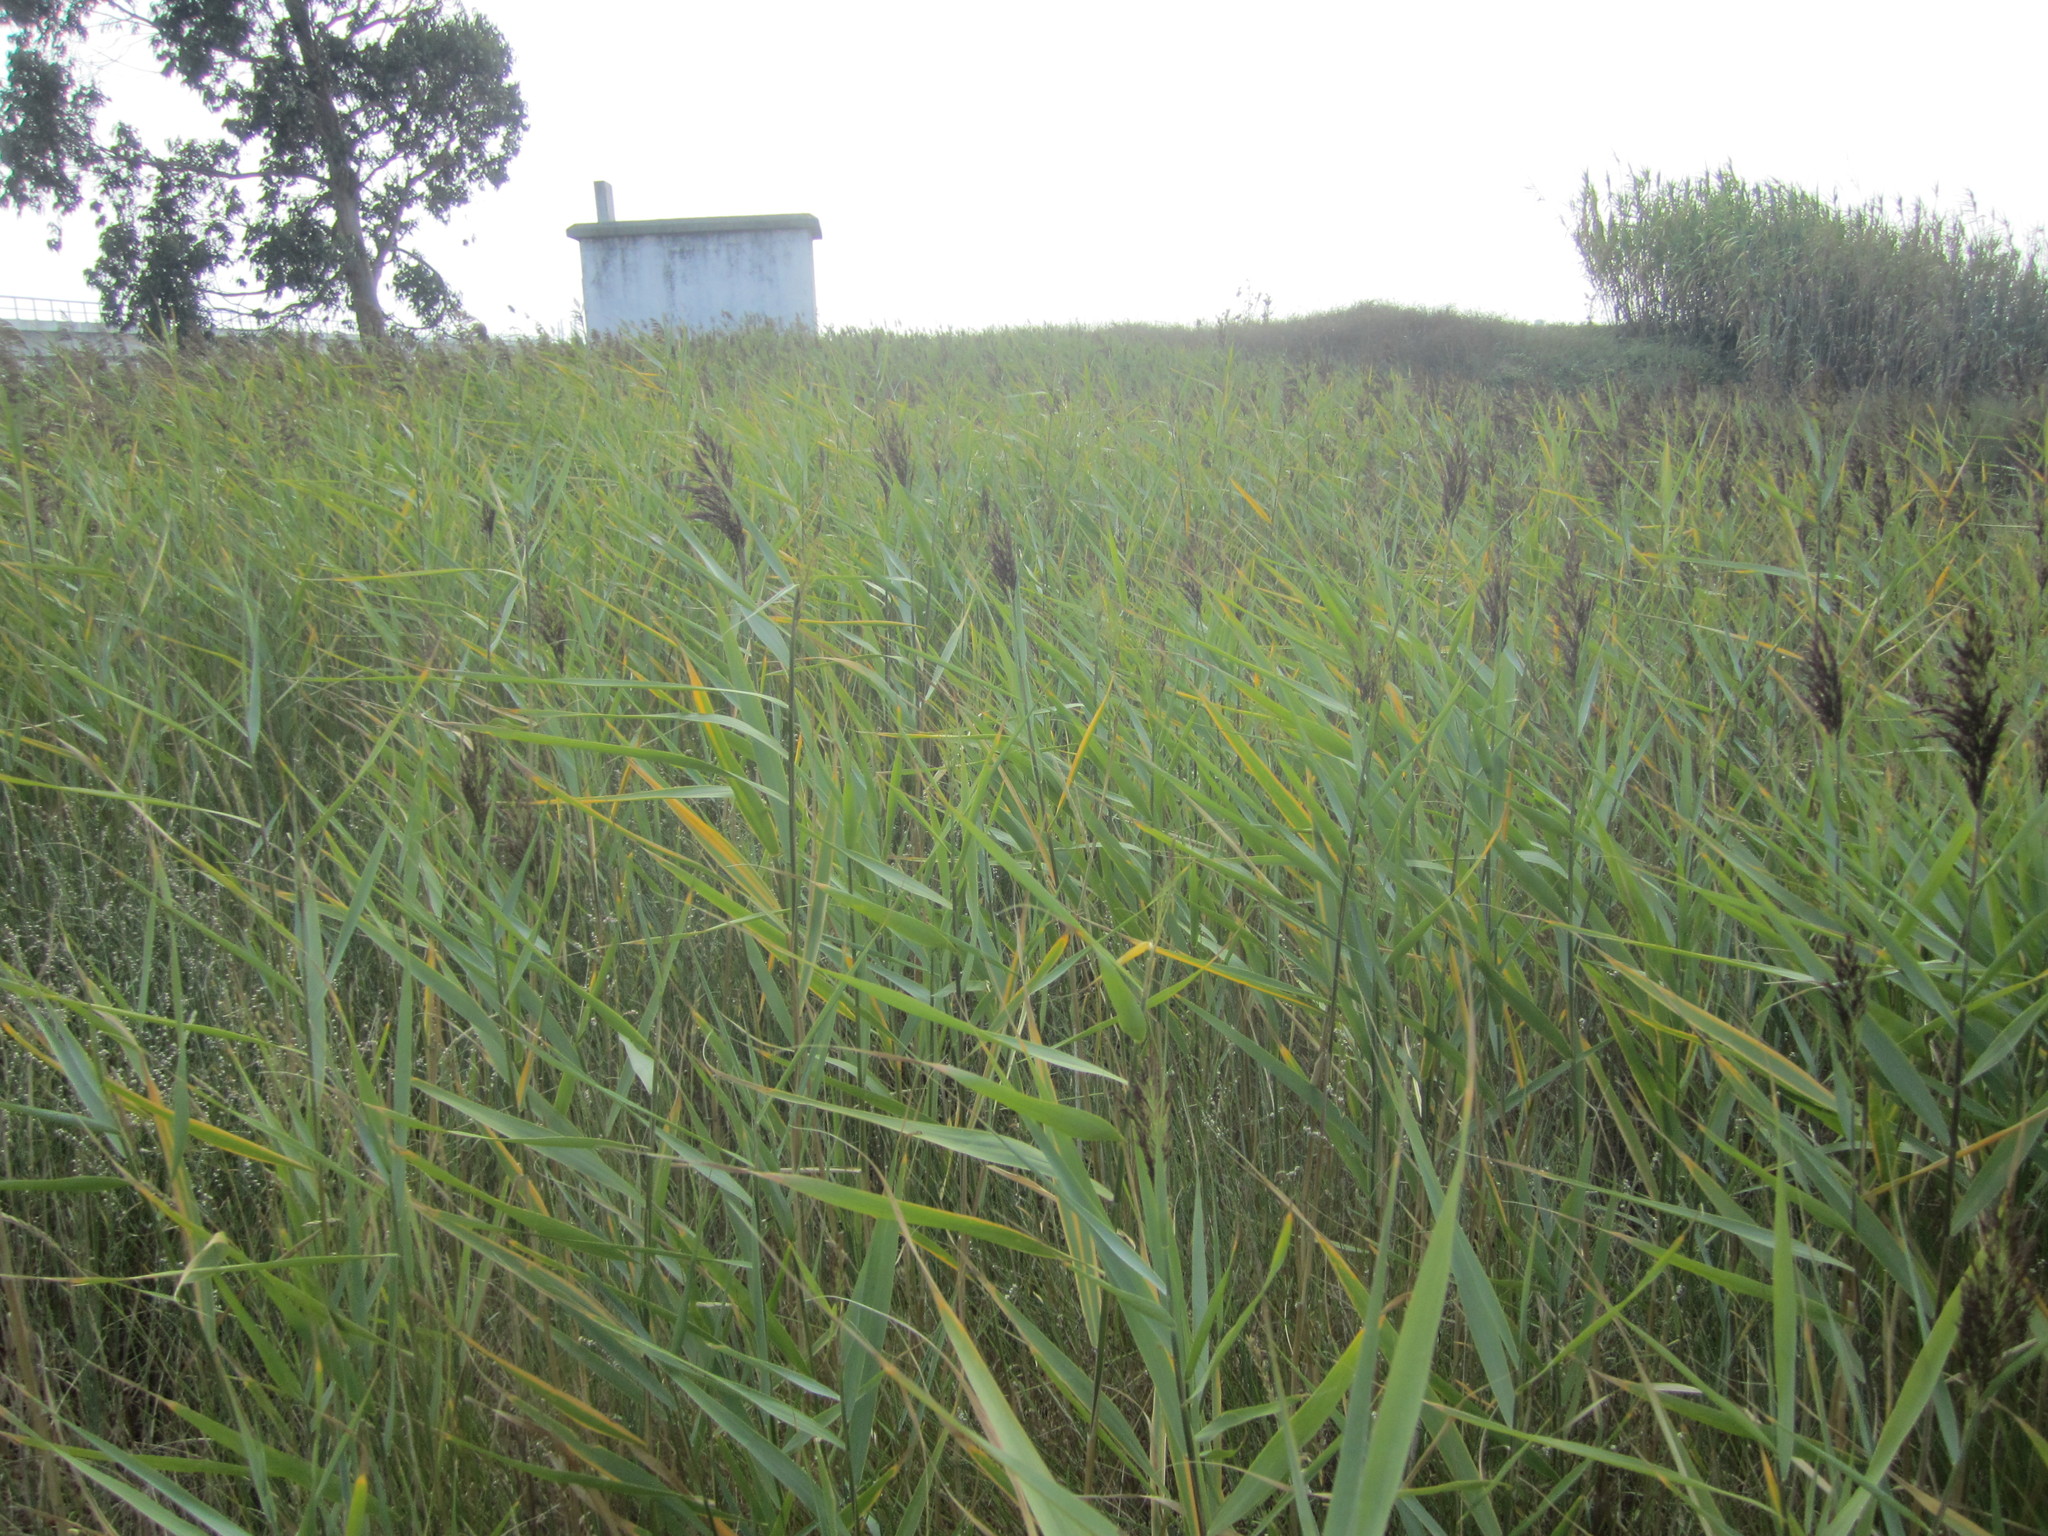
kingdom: Plantae
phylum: Tracheophyta
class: Liliopsida
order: Poales
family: Poaceae
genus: Phragmites
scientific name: Phragmites australis
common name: Common reed
